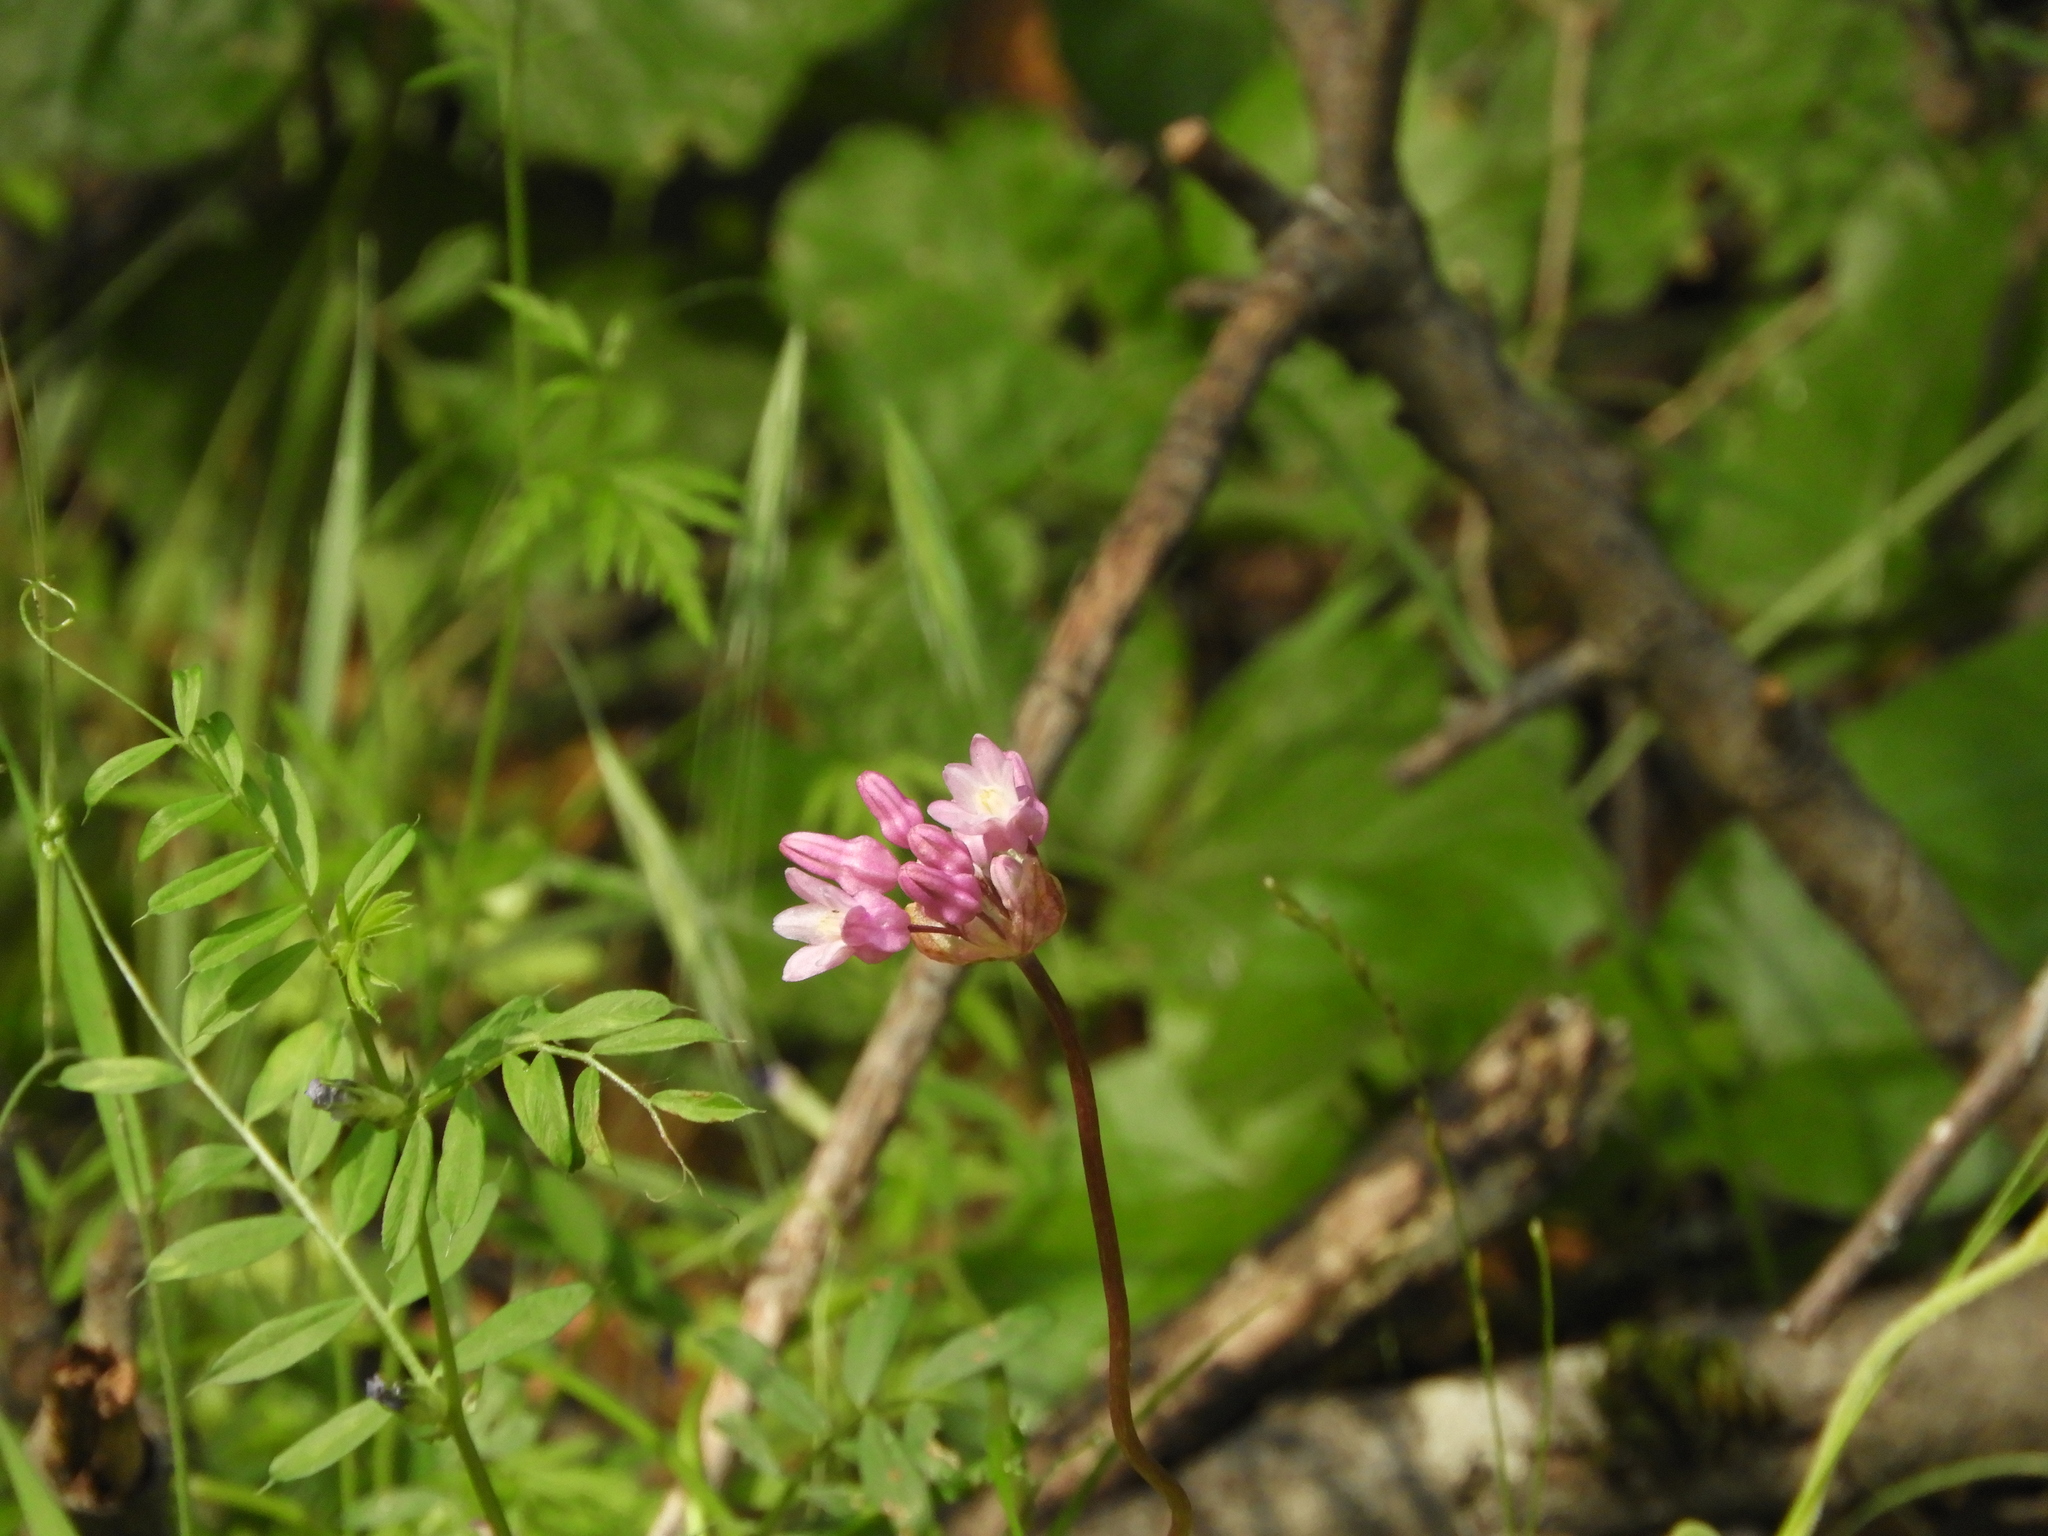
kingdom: Plantae
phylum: Tracheophyta
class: Liliopsida
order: Asparagales
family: Asparagaceae
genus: Dichelostemma
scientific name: Dichelostemma volubile
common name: Trining brodiaea
